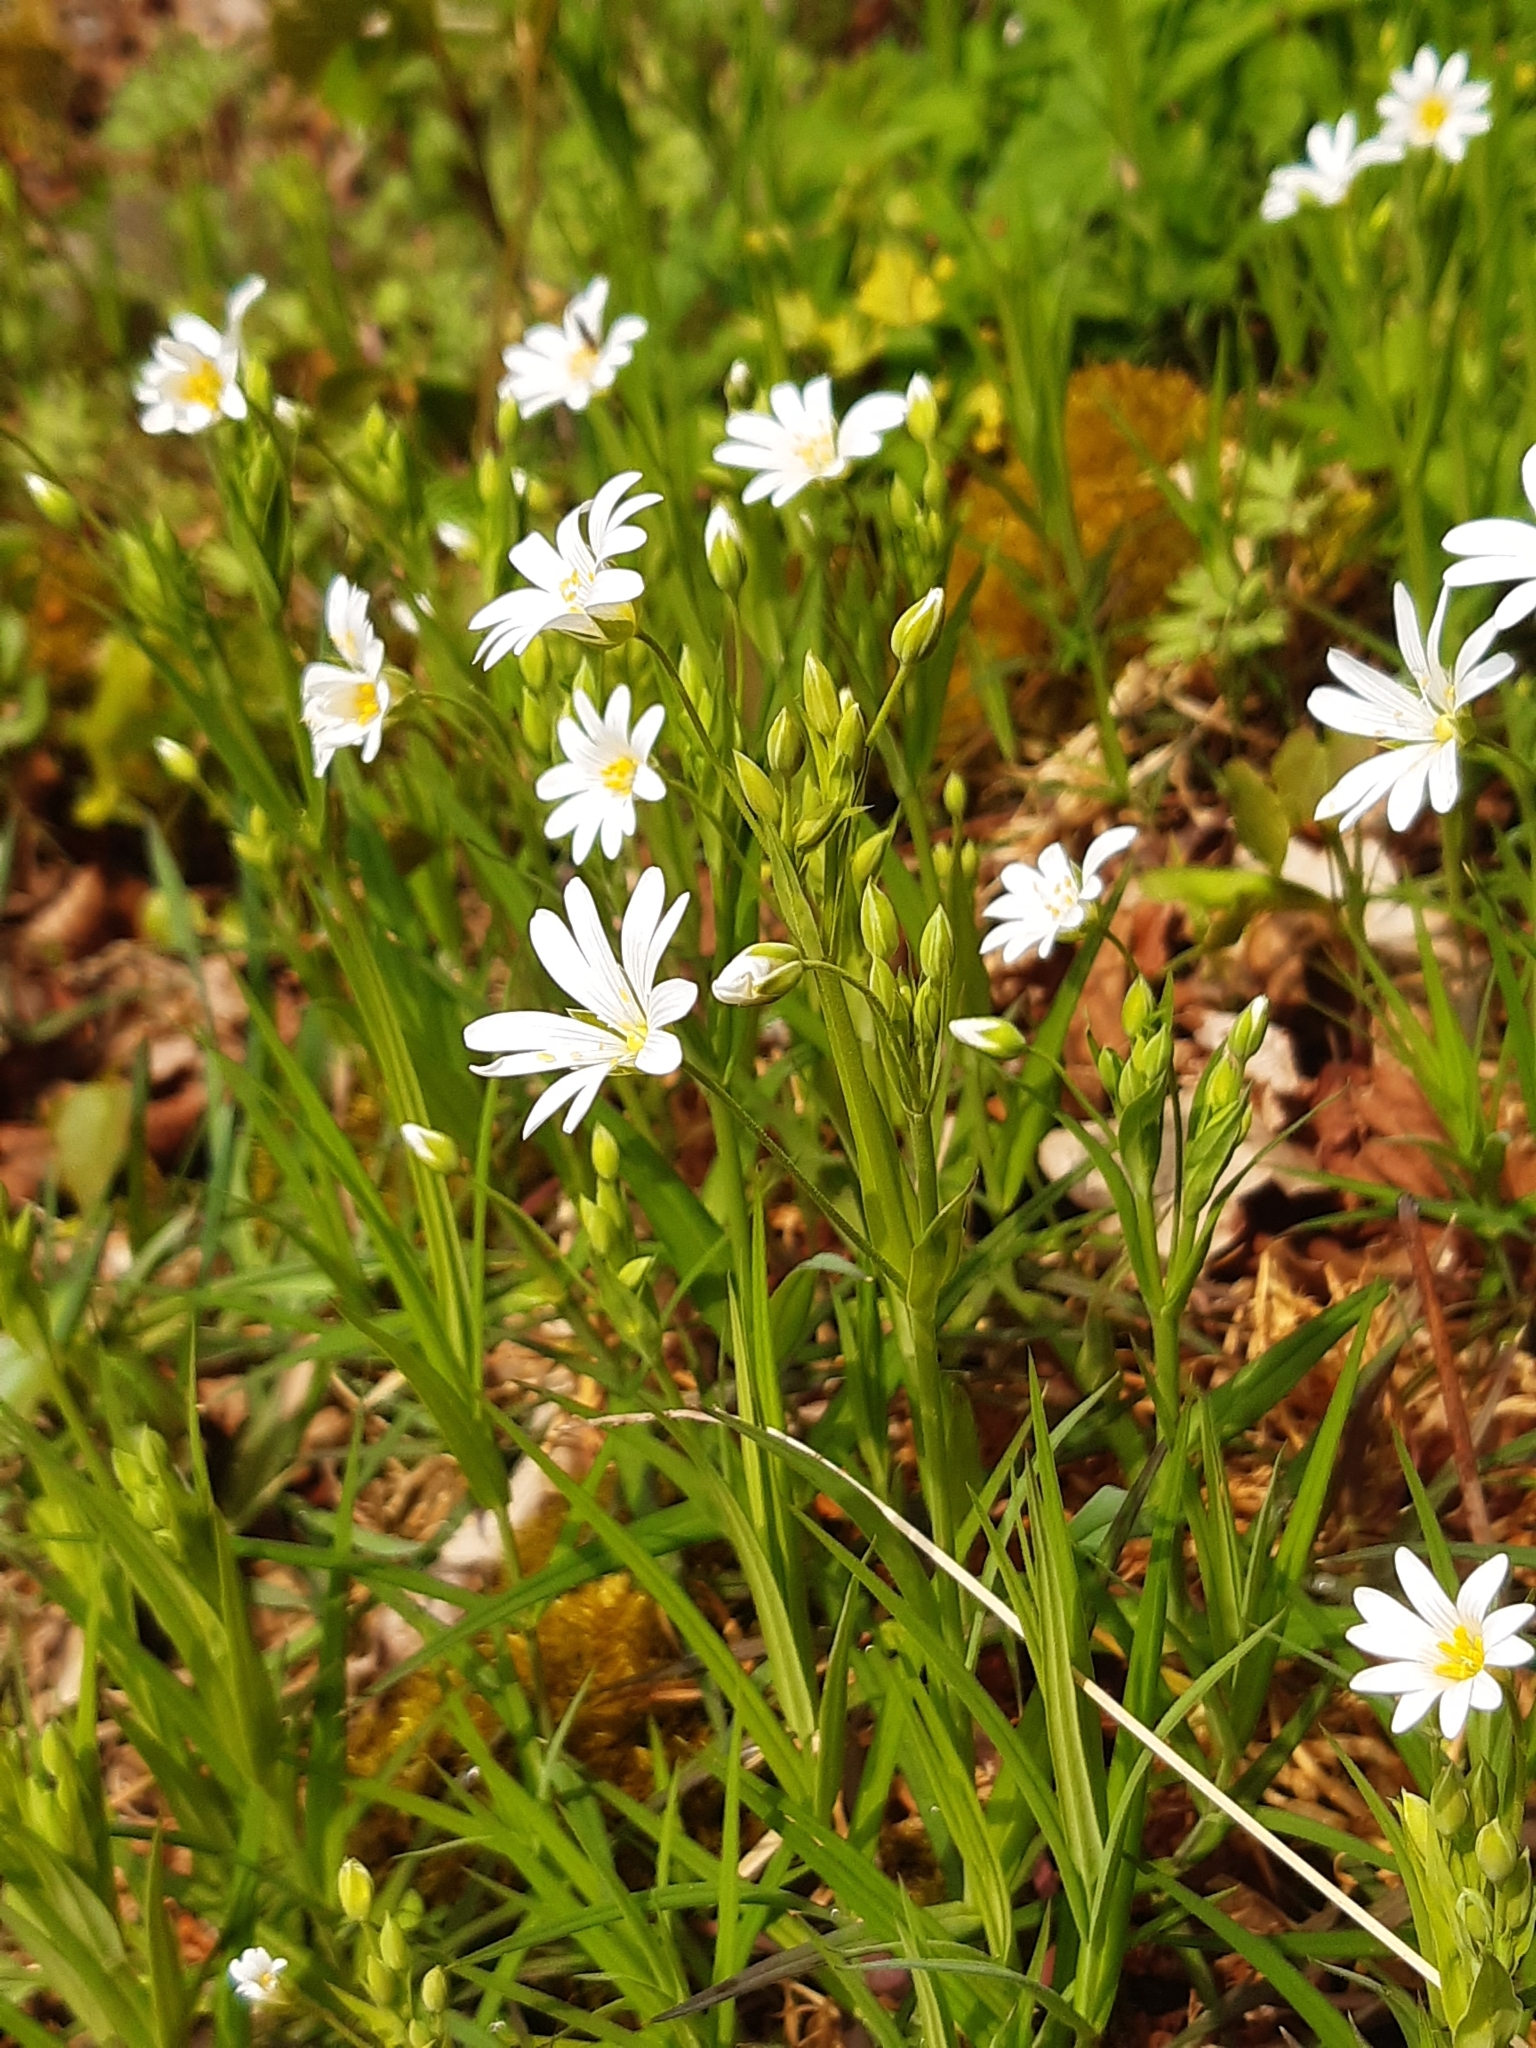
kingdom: Plantae
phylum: Tracheophyta
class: Magnoliopsida
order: Caryophyllales
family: Caryophyllaceae
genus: Rabelera
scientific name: Rabelera holostea
